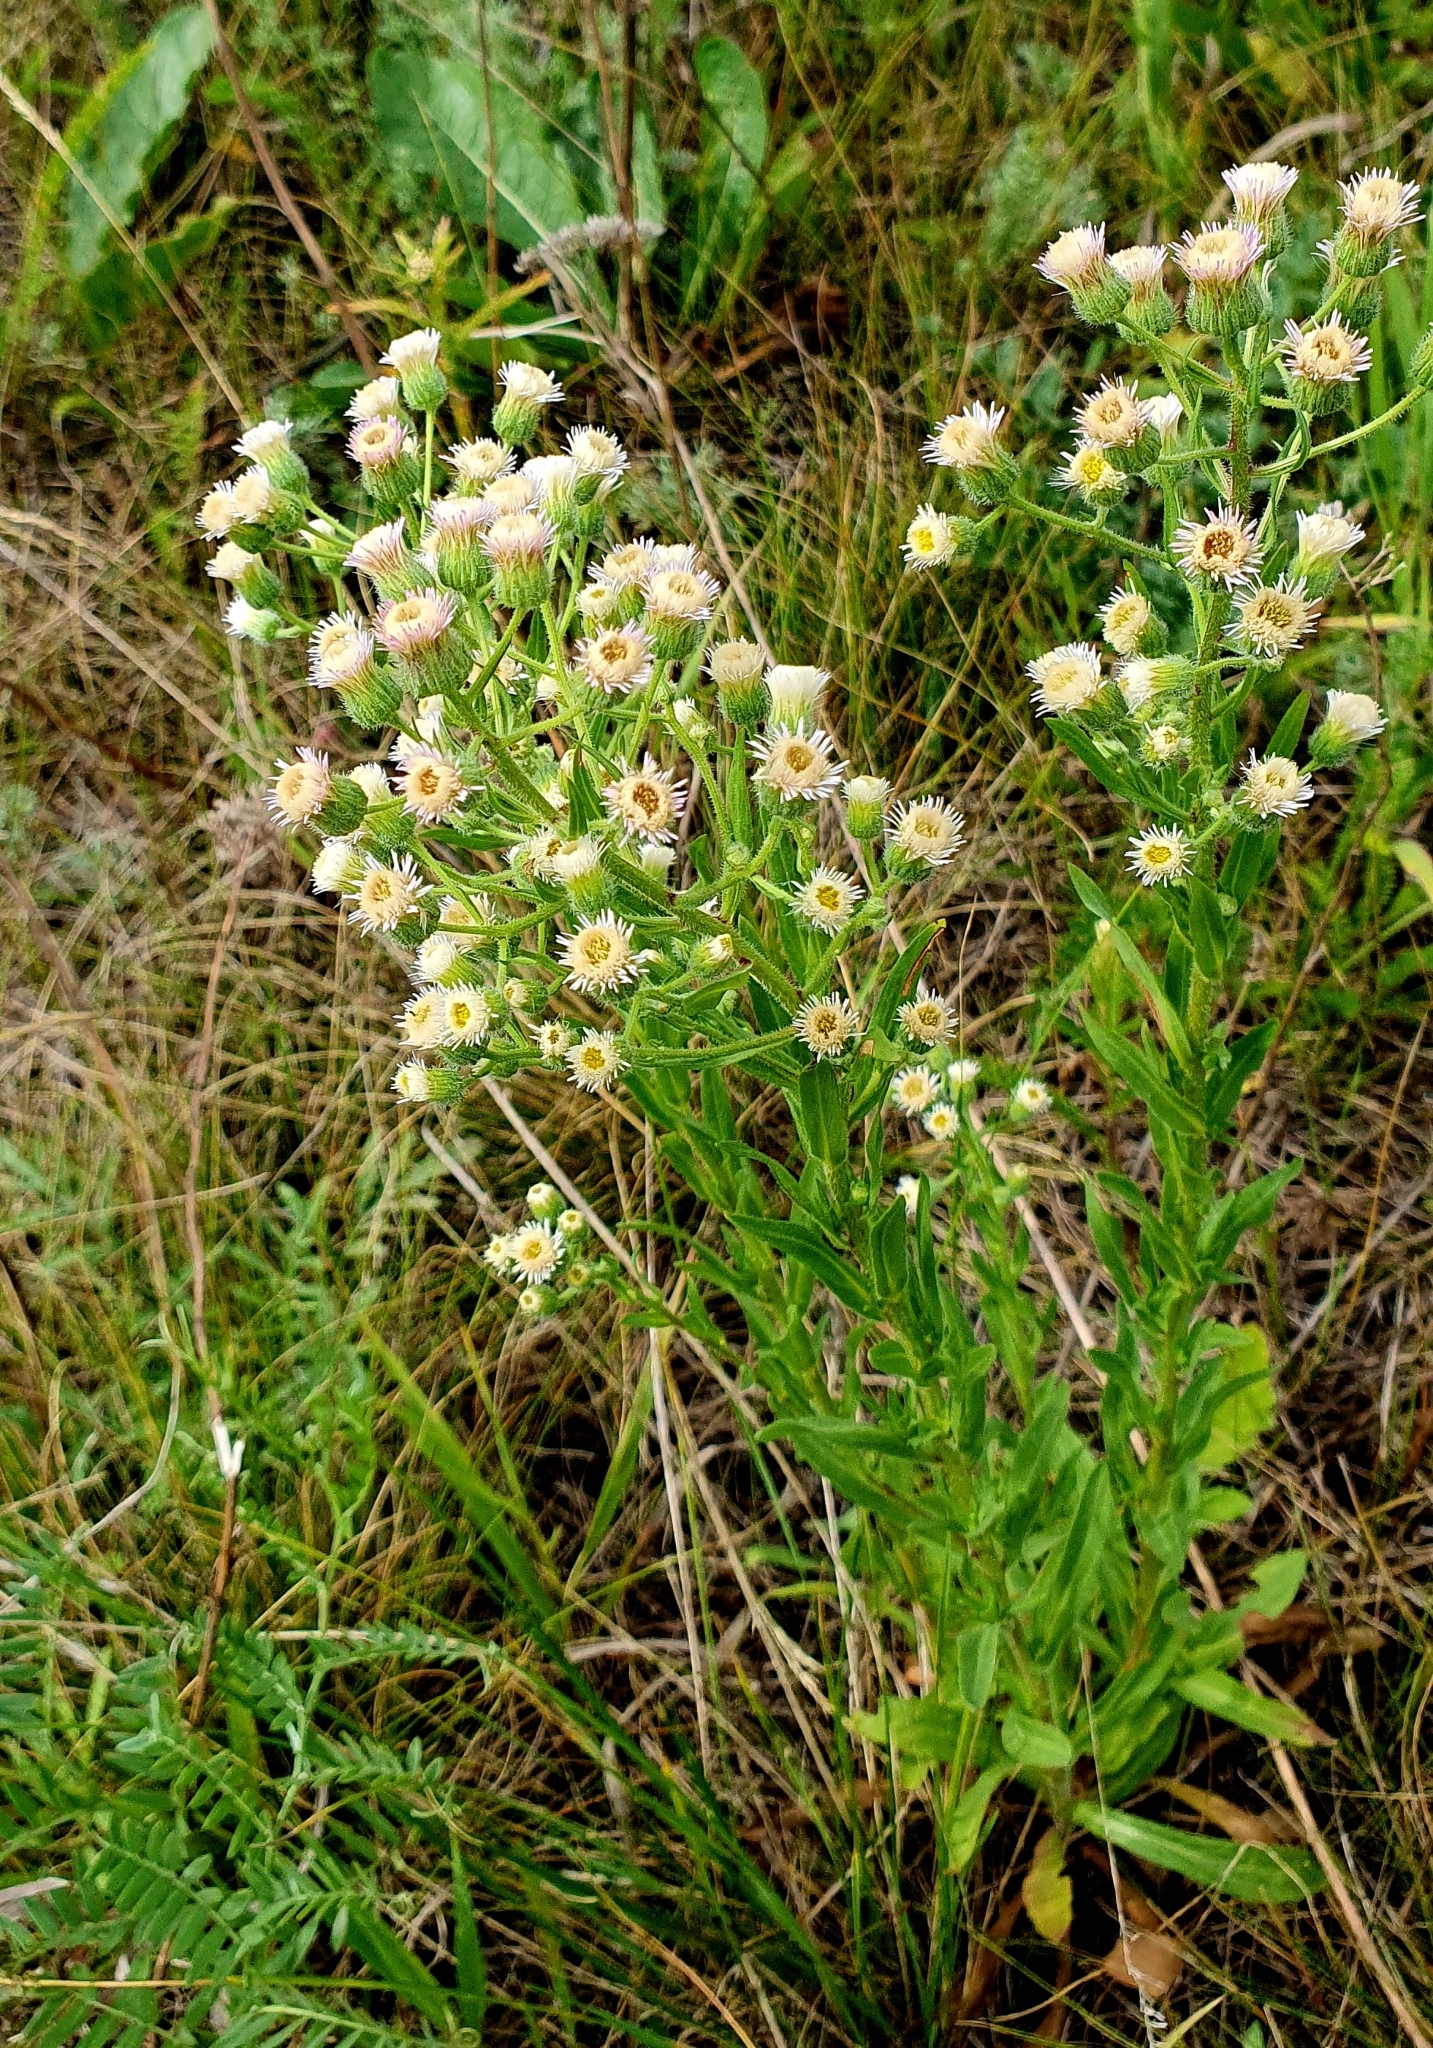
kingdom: Plantae
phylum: Tracheophyta
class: Magnoliopsida
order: Asterales
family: Asteraceae
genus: Erigeron
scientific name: Erigeron acris
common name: Blue fleabane
